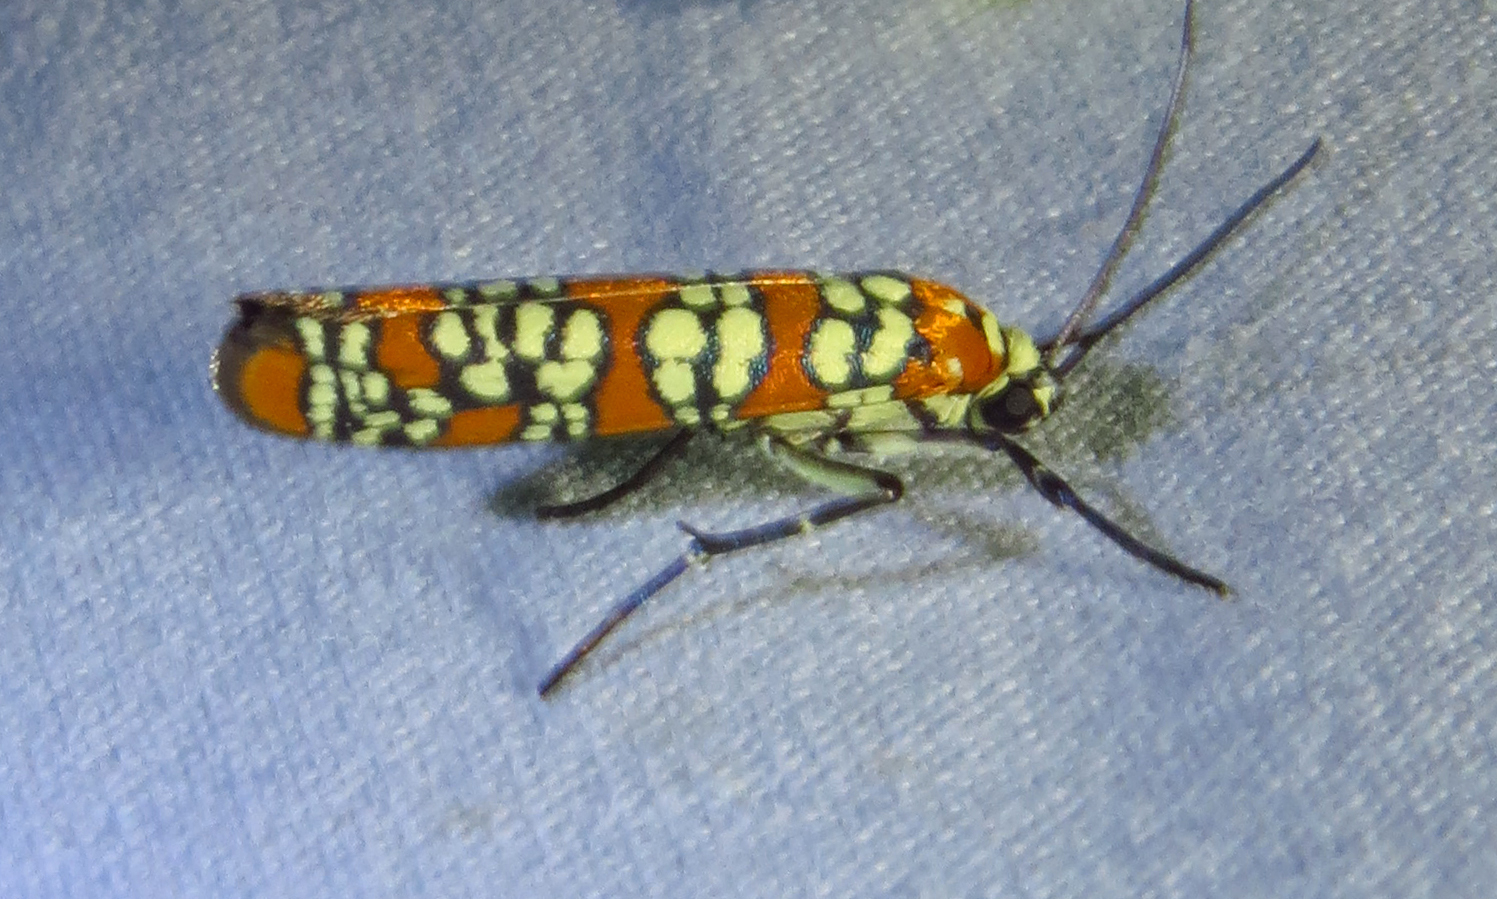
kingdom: Animalia
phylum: Arthropoda
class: Insecta
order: Lepidoptera
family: Attevidae
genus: Atteva
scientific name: Atteva punctella
